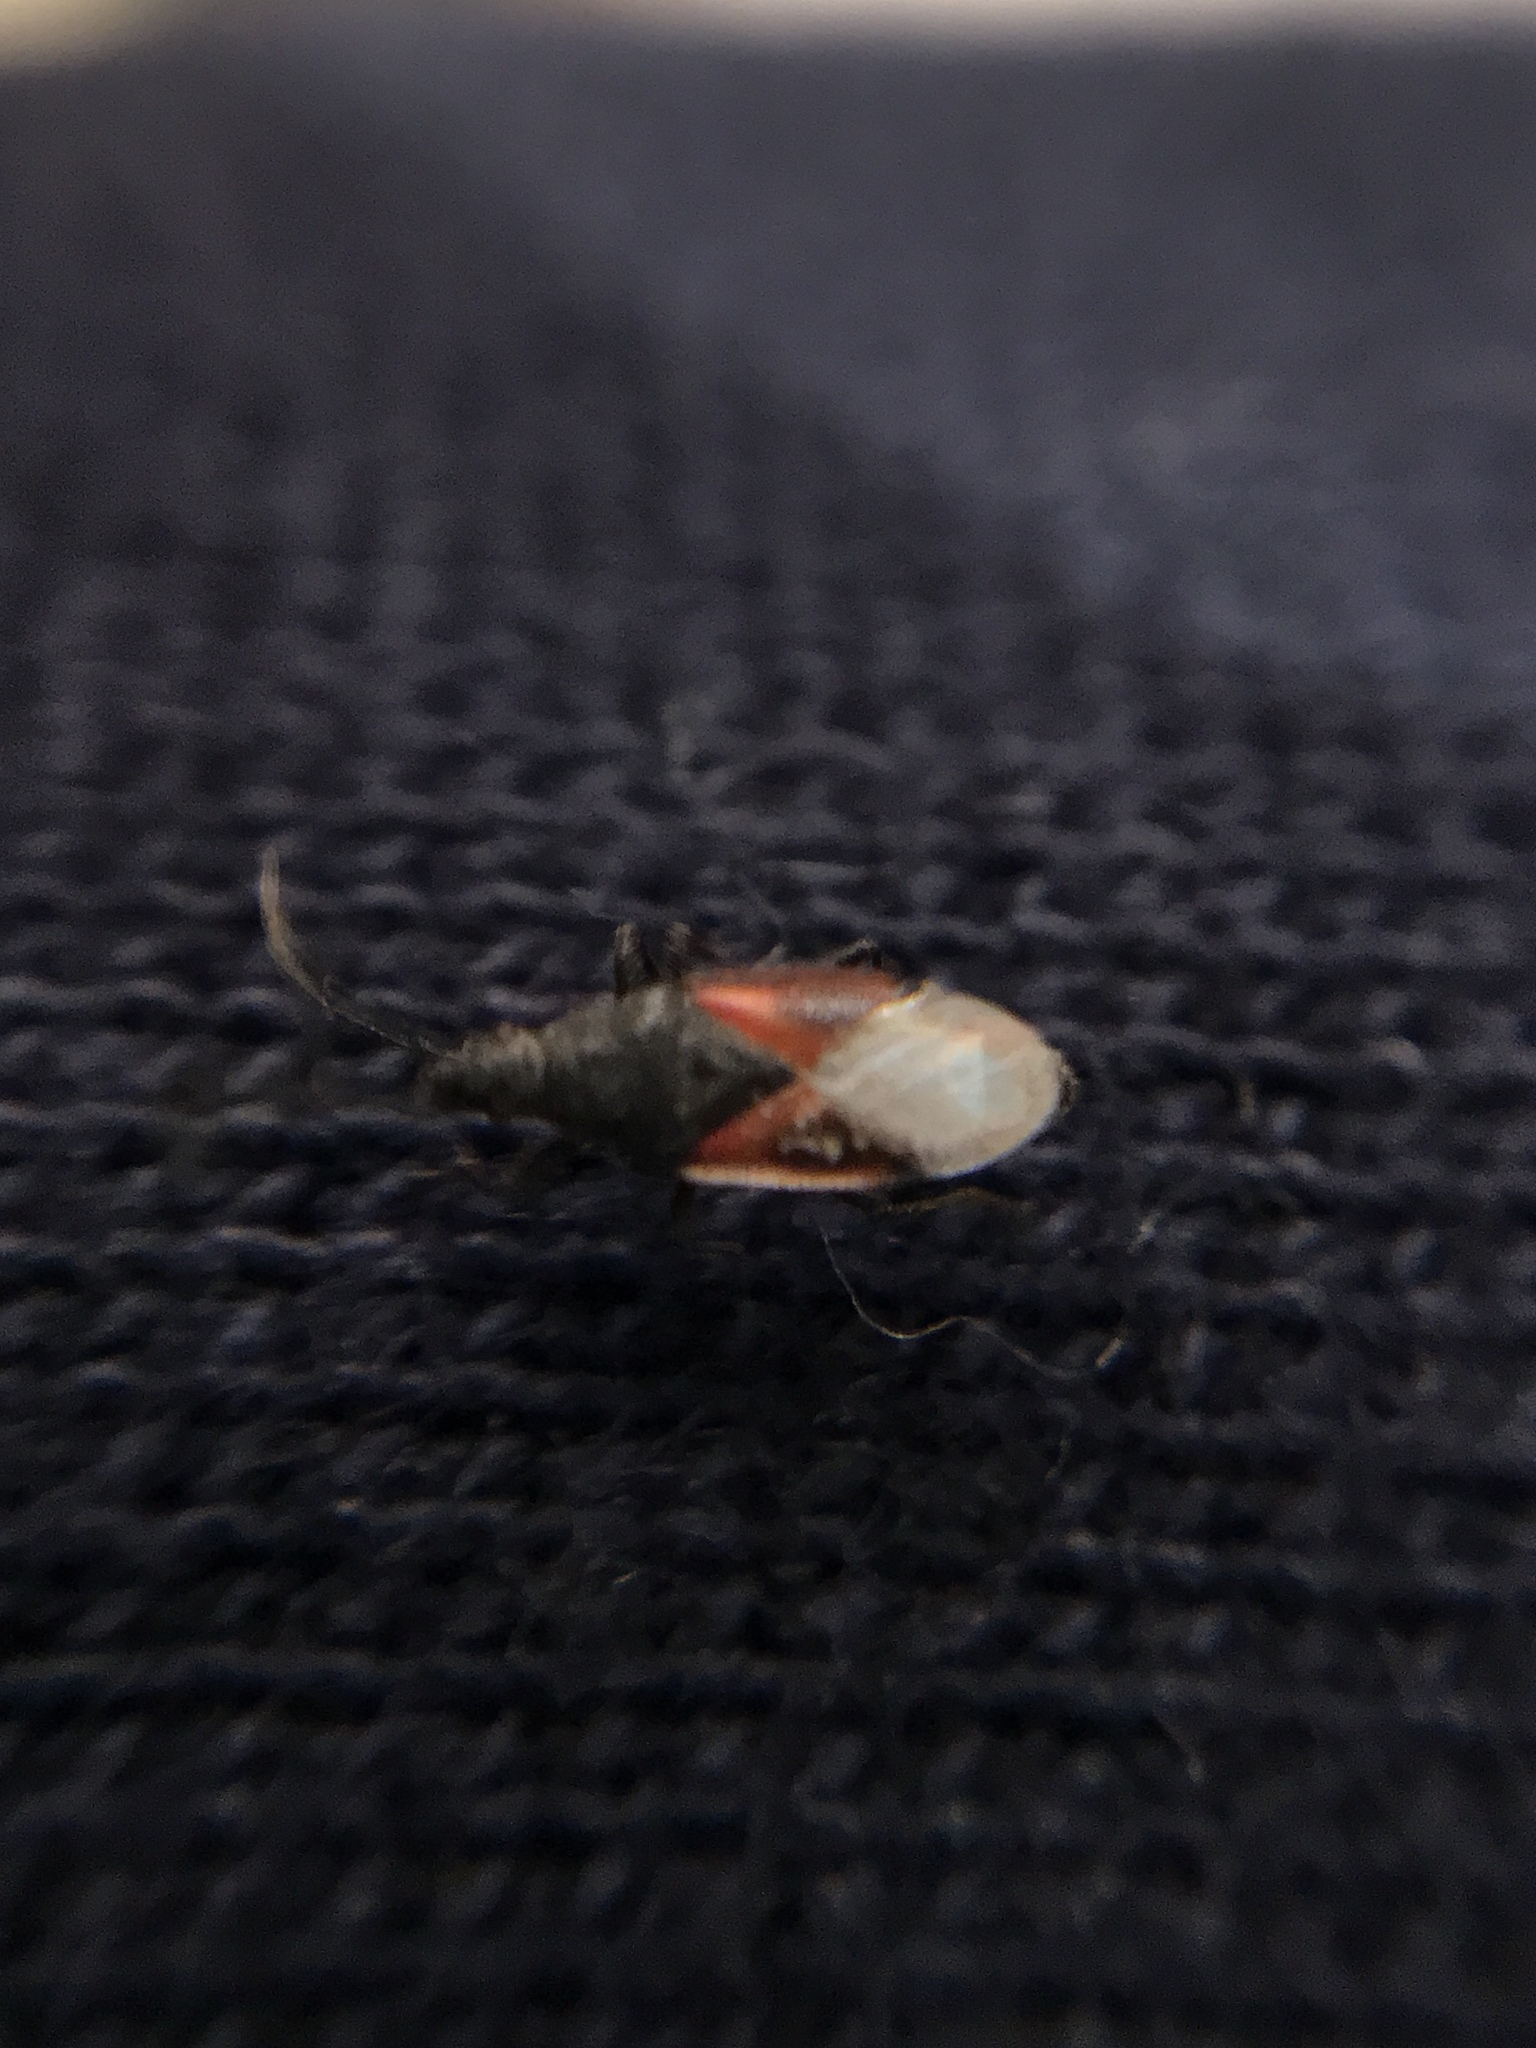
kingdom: Animalia
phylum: Arthropoda
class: Insecta
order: Hemiptera
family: Oxycarenidae
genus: Oxycarenus
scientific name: Oxycarenus lavaterae
